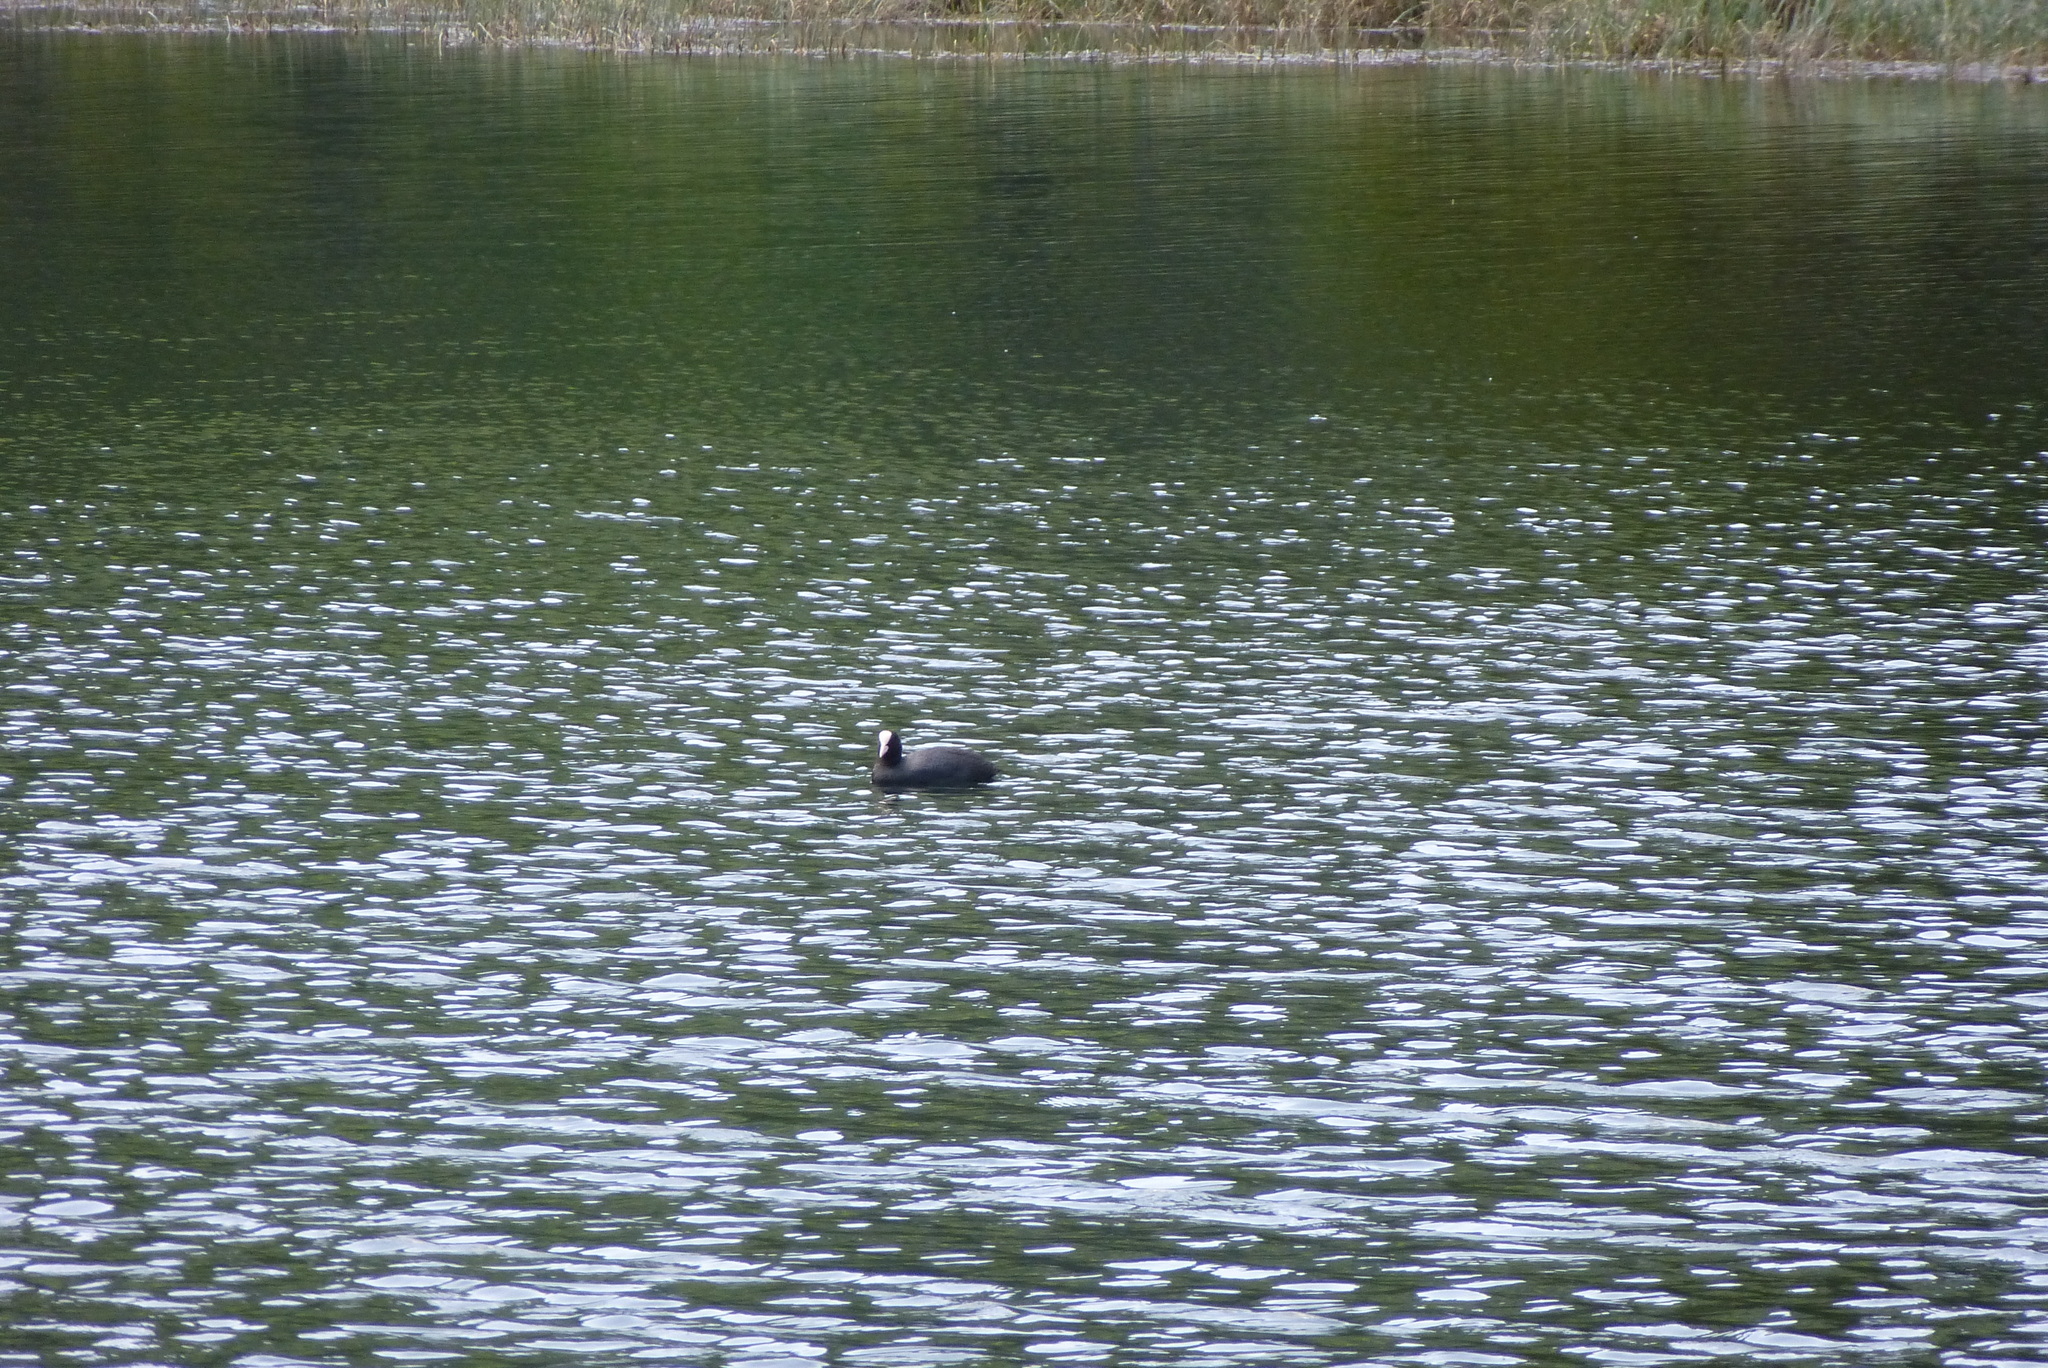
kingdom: Animalia
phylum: Chordata
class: Aves
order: Gruiformes
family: Rallidae
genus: Fulica
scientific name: Fulica atra
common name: Eurasian coot
